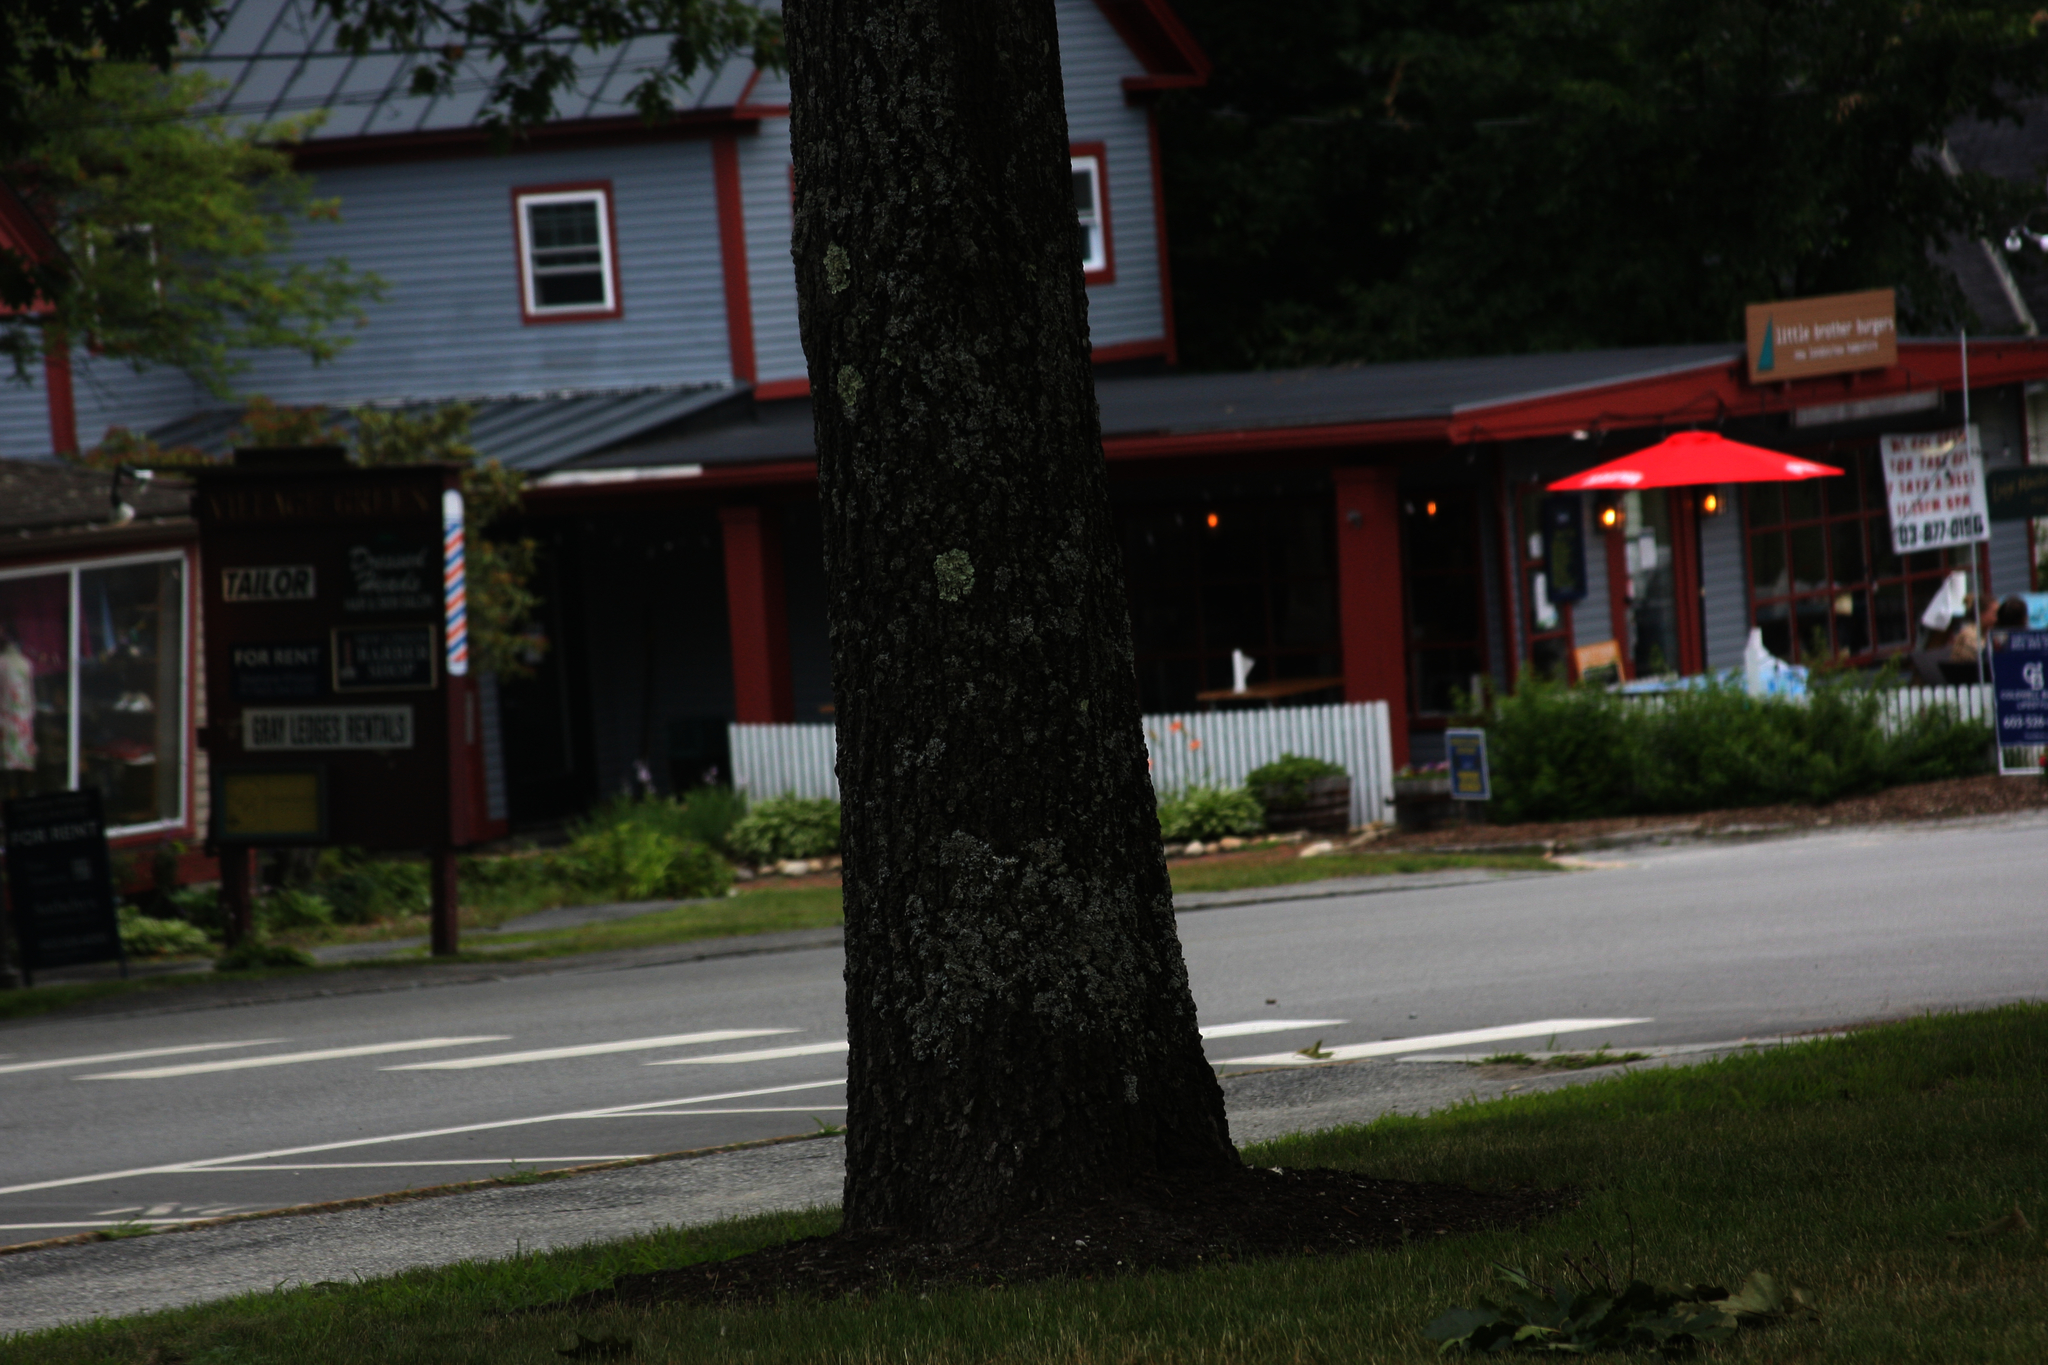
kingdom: Plantae
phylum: Tracheophyta
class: Magnoliopsida
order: Fagales
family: Fagaceae
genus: Quercus
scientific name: Quercus rubra
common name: Red oak
